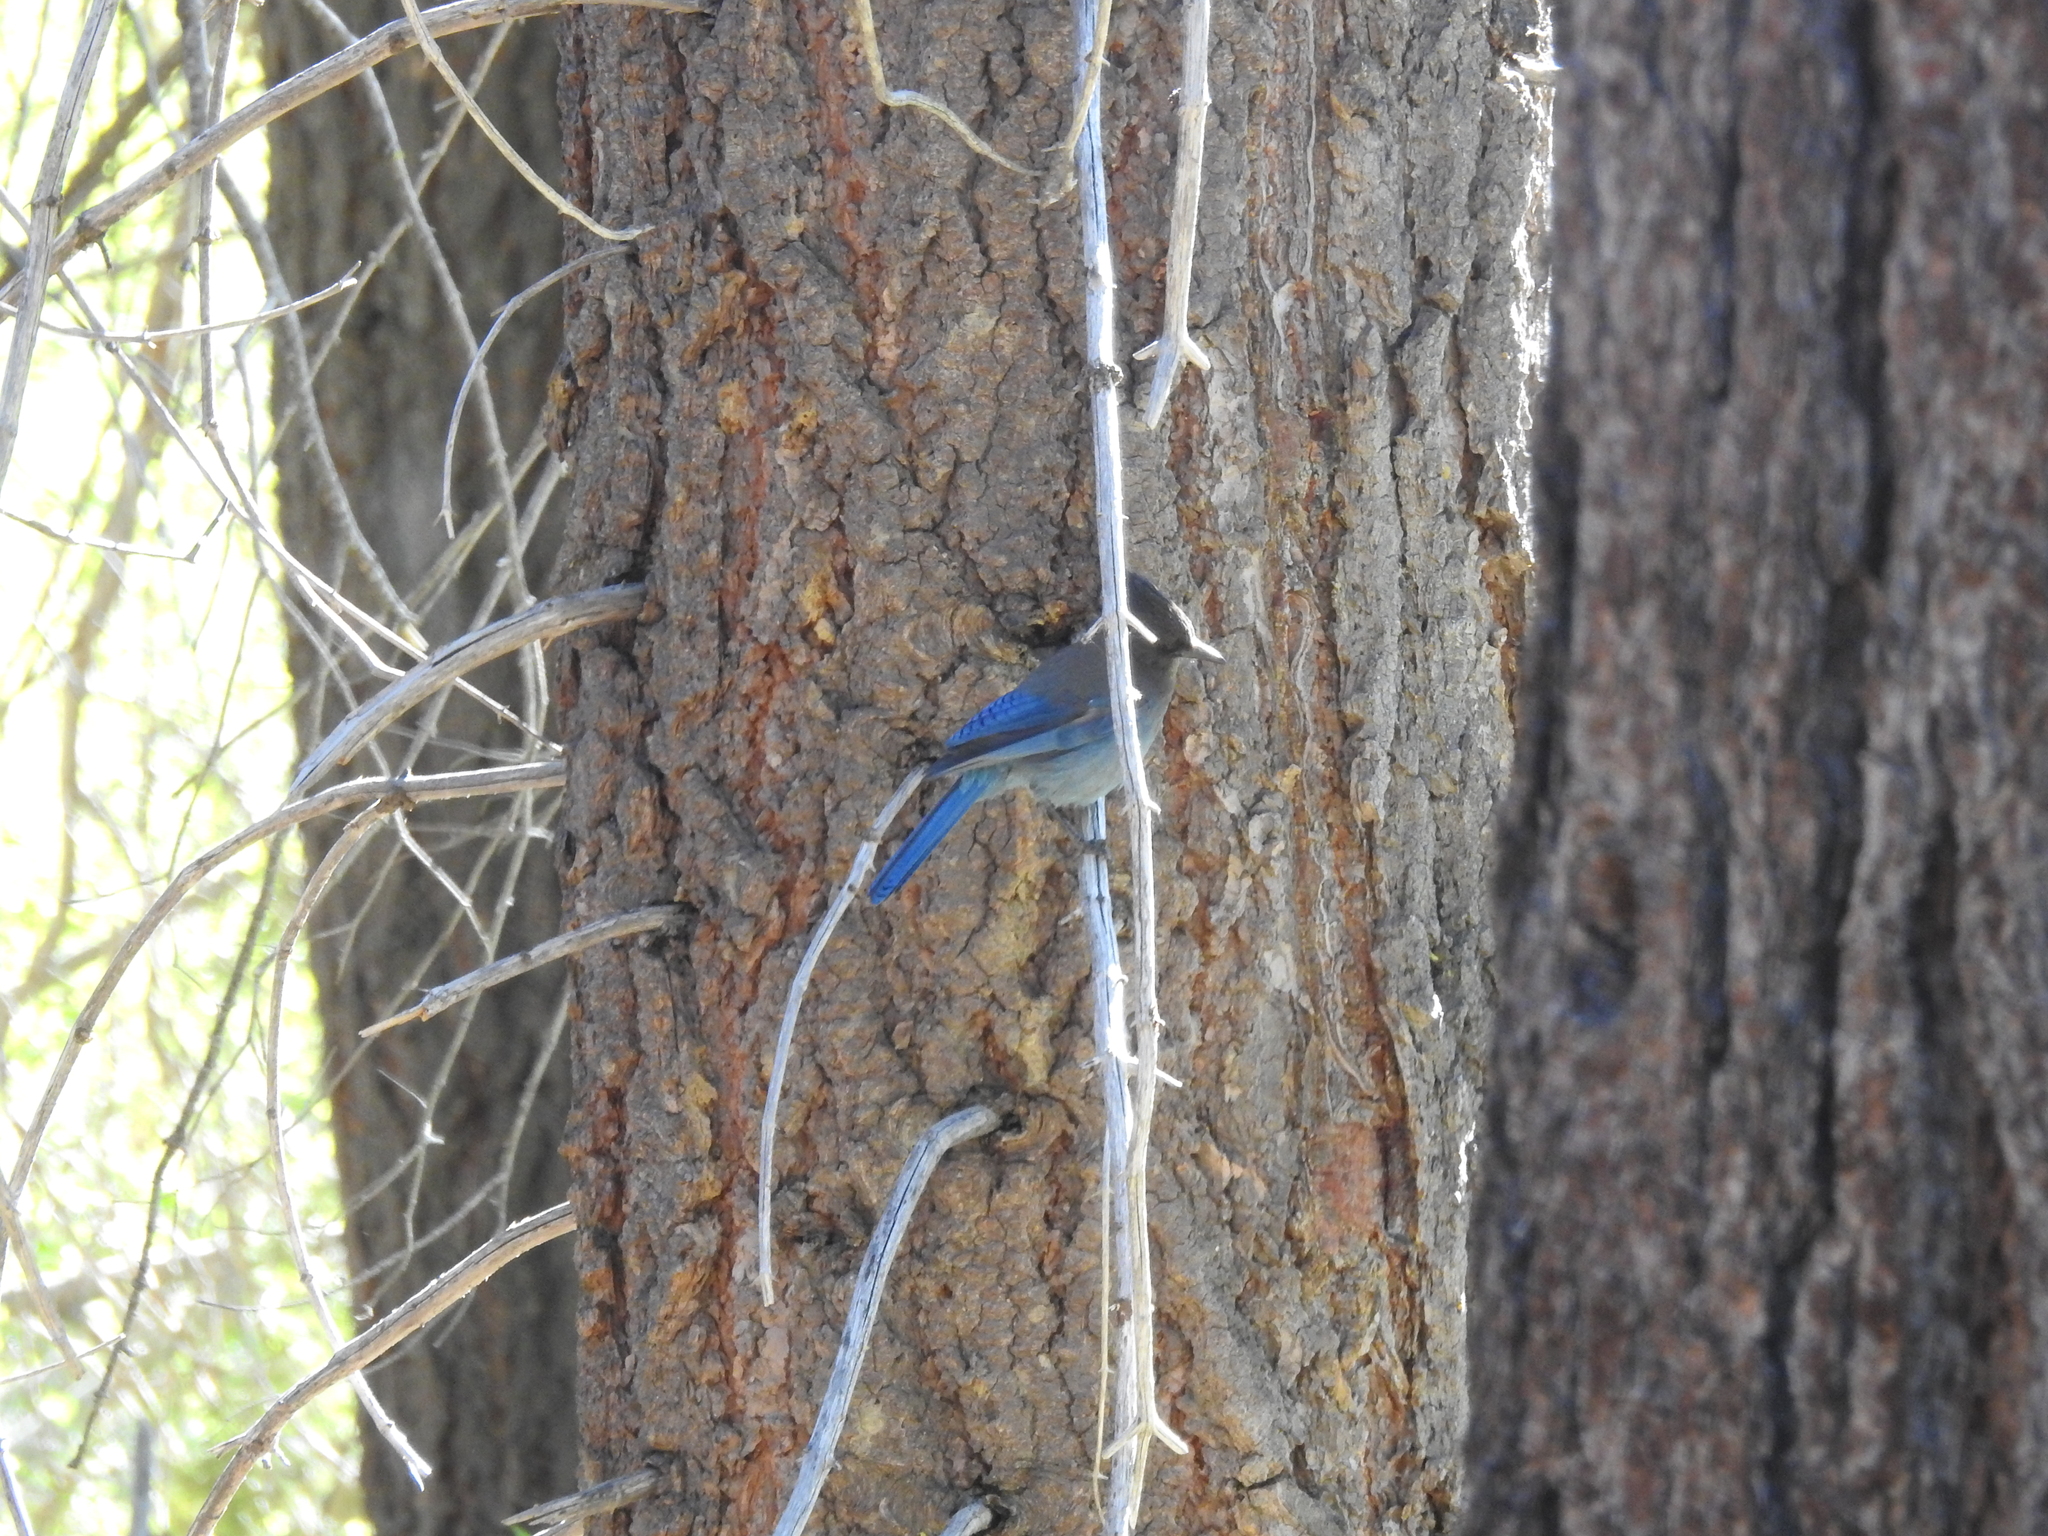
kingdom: Animalia
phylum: Chordata
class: Aves
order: Passeriformes
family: Corvidae
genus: Cyanocitta
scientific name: Cyanocitta stelleri
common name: Steller's jay
